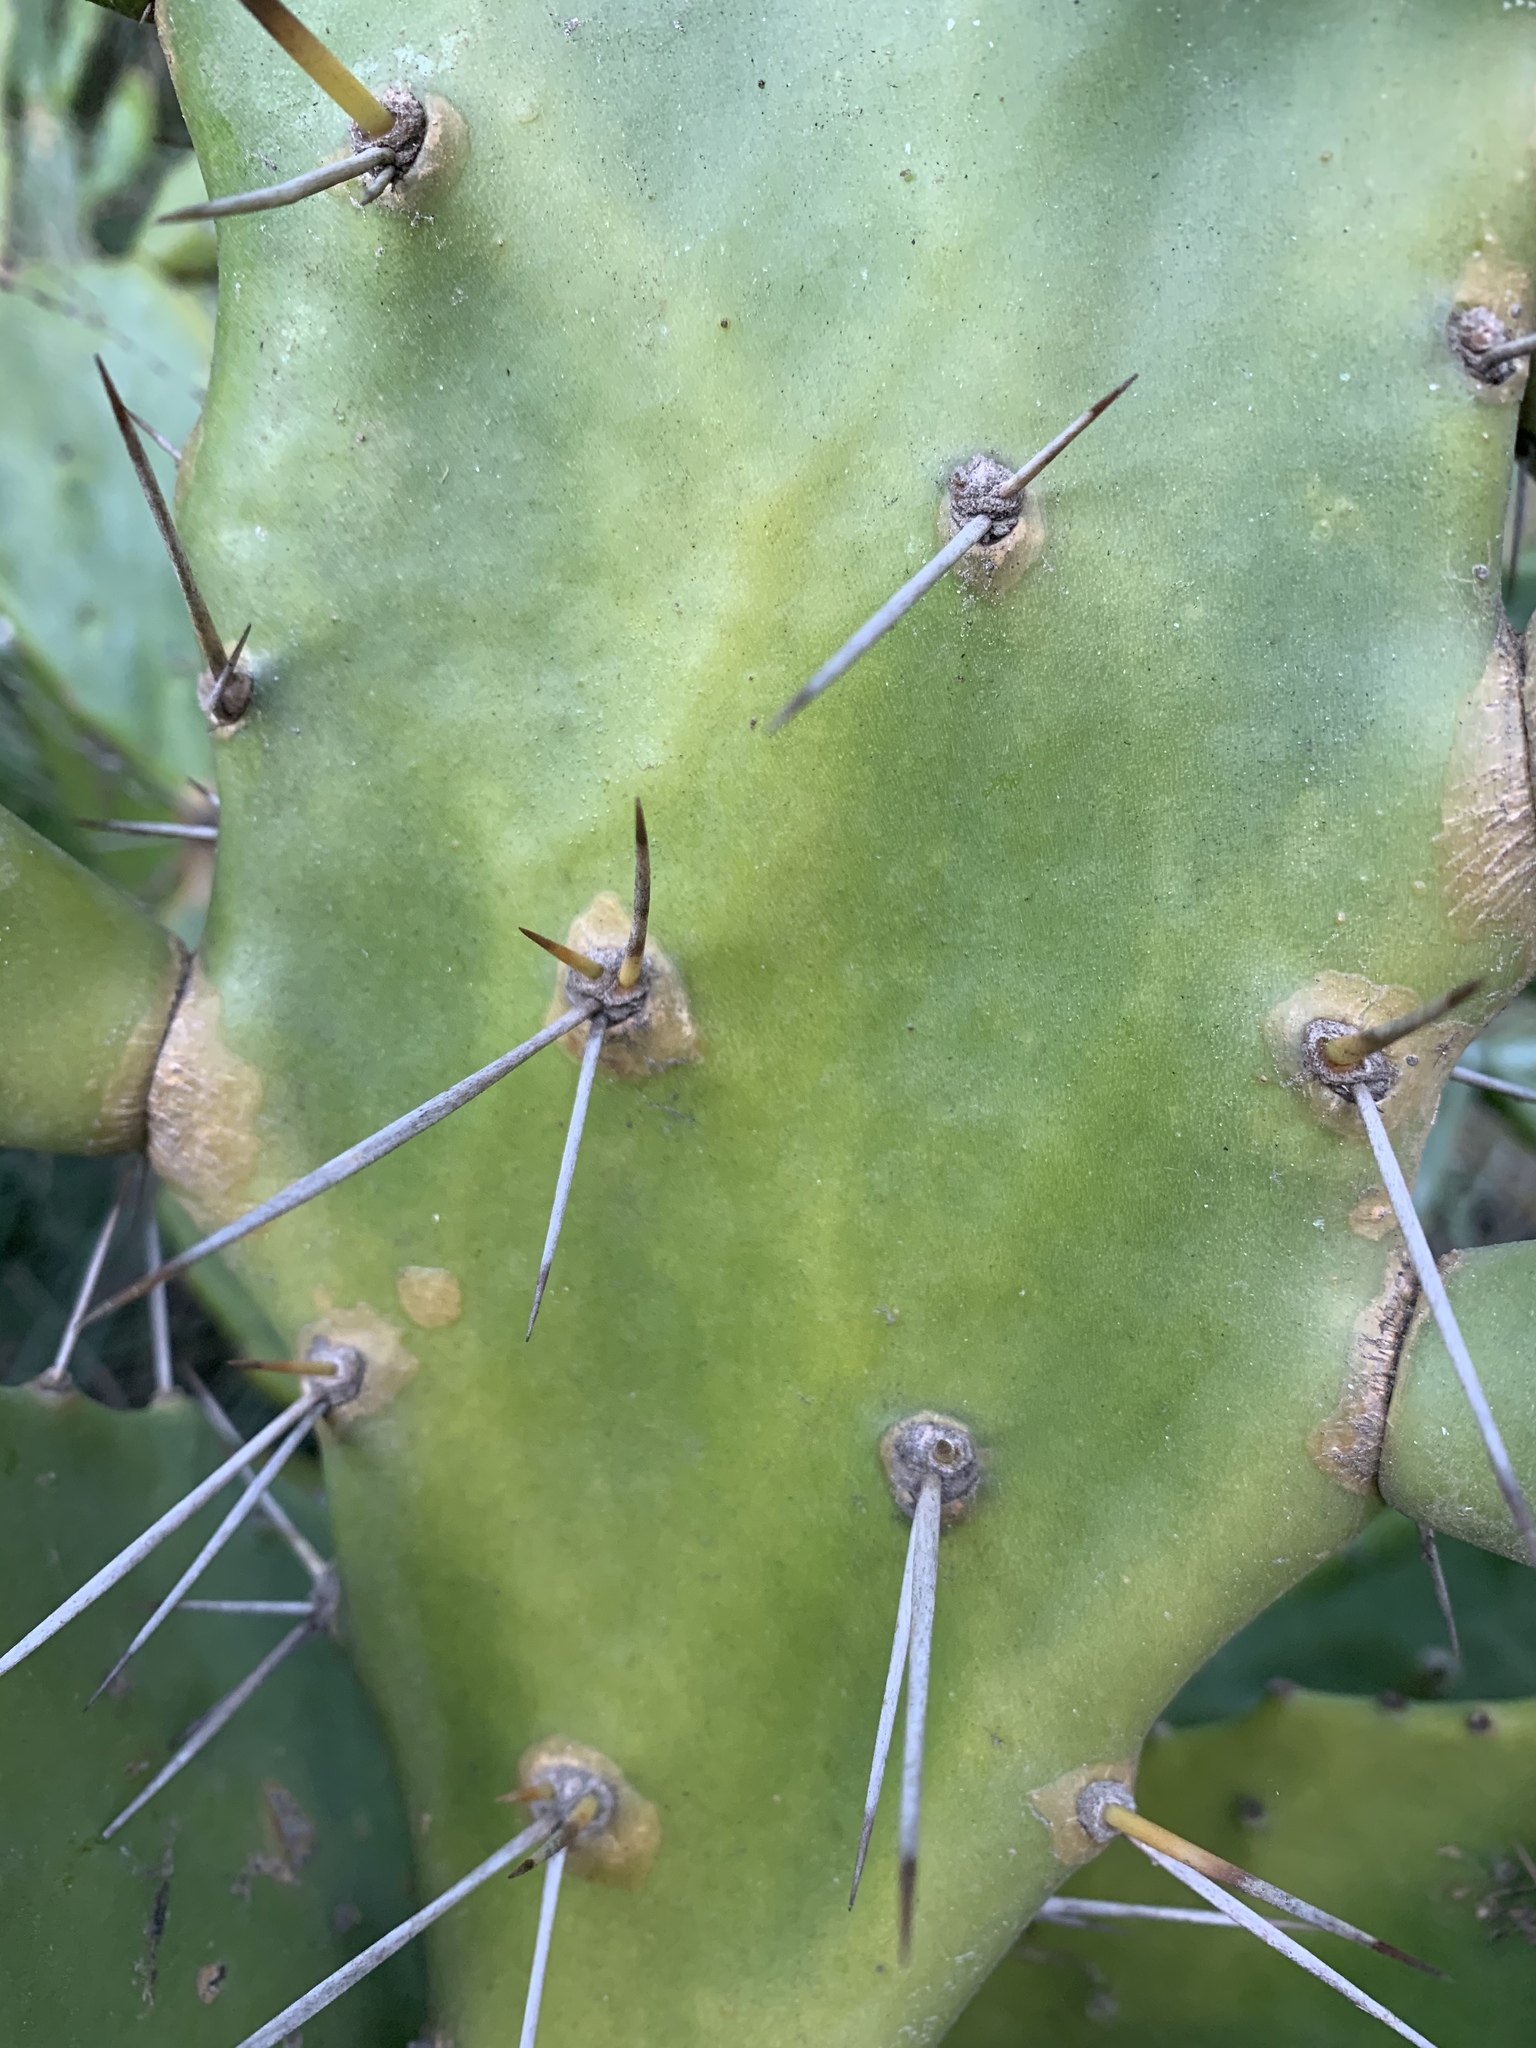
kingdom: Plantae
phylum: Tracheophyta
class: Magnoliopsida
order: Caryophyllales
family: Cactaceae
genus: Opuntia
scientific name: Opuntia monacantha
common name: Common pricklypear
